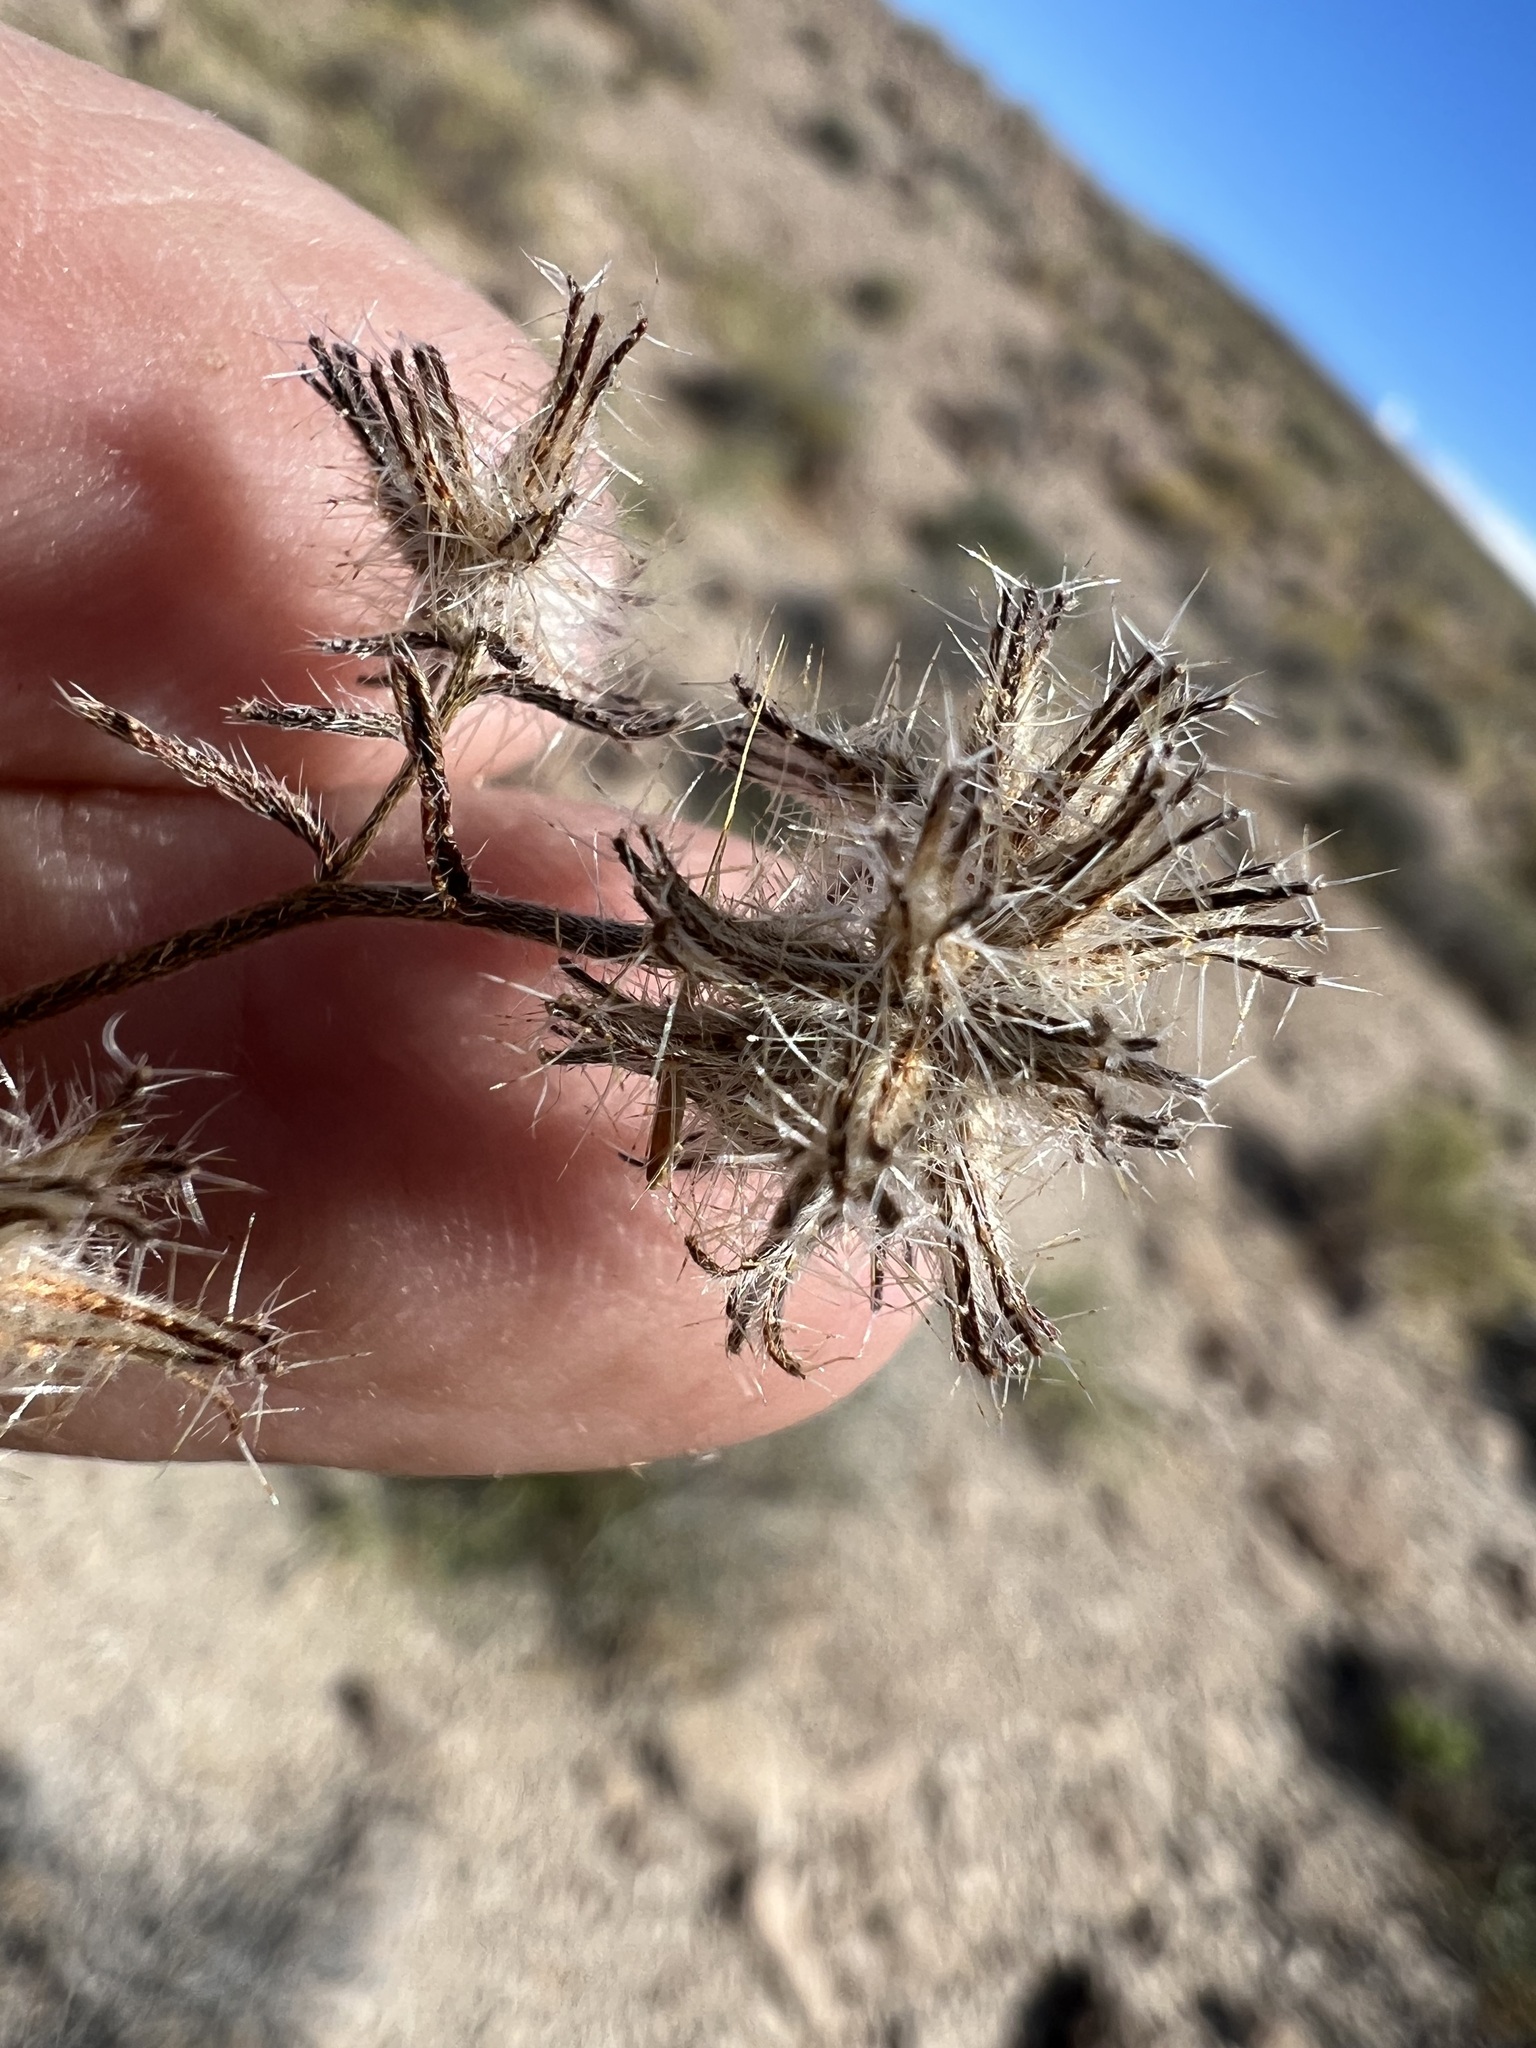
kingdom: Plantae
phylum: Tracheophyta
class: Magnoliopsida
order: Boraginales
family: Boraginaceae
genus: Cryptantha
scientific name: Cryptantha nevadensis
